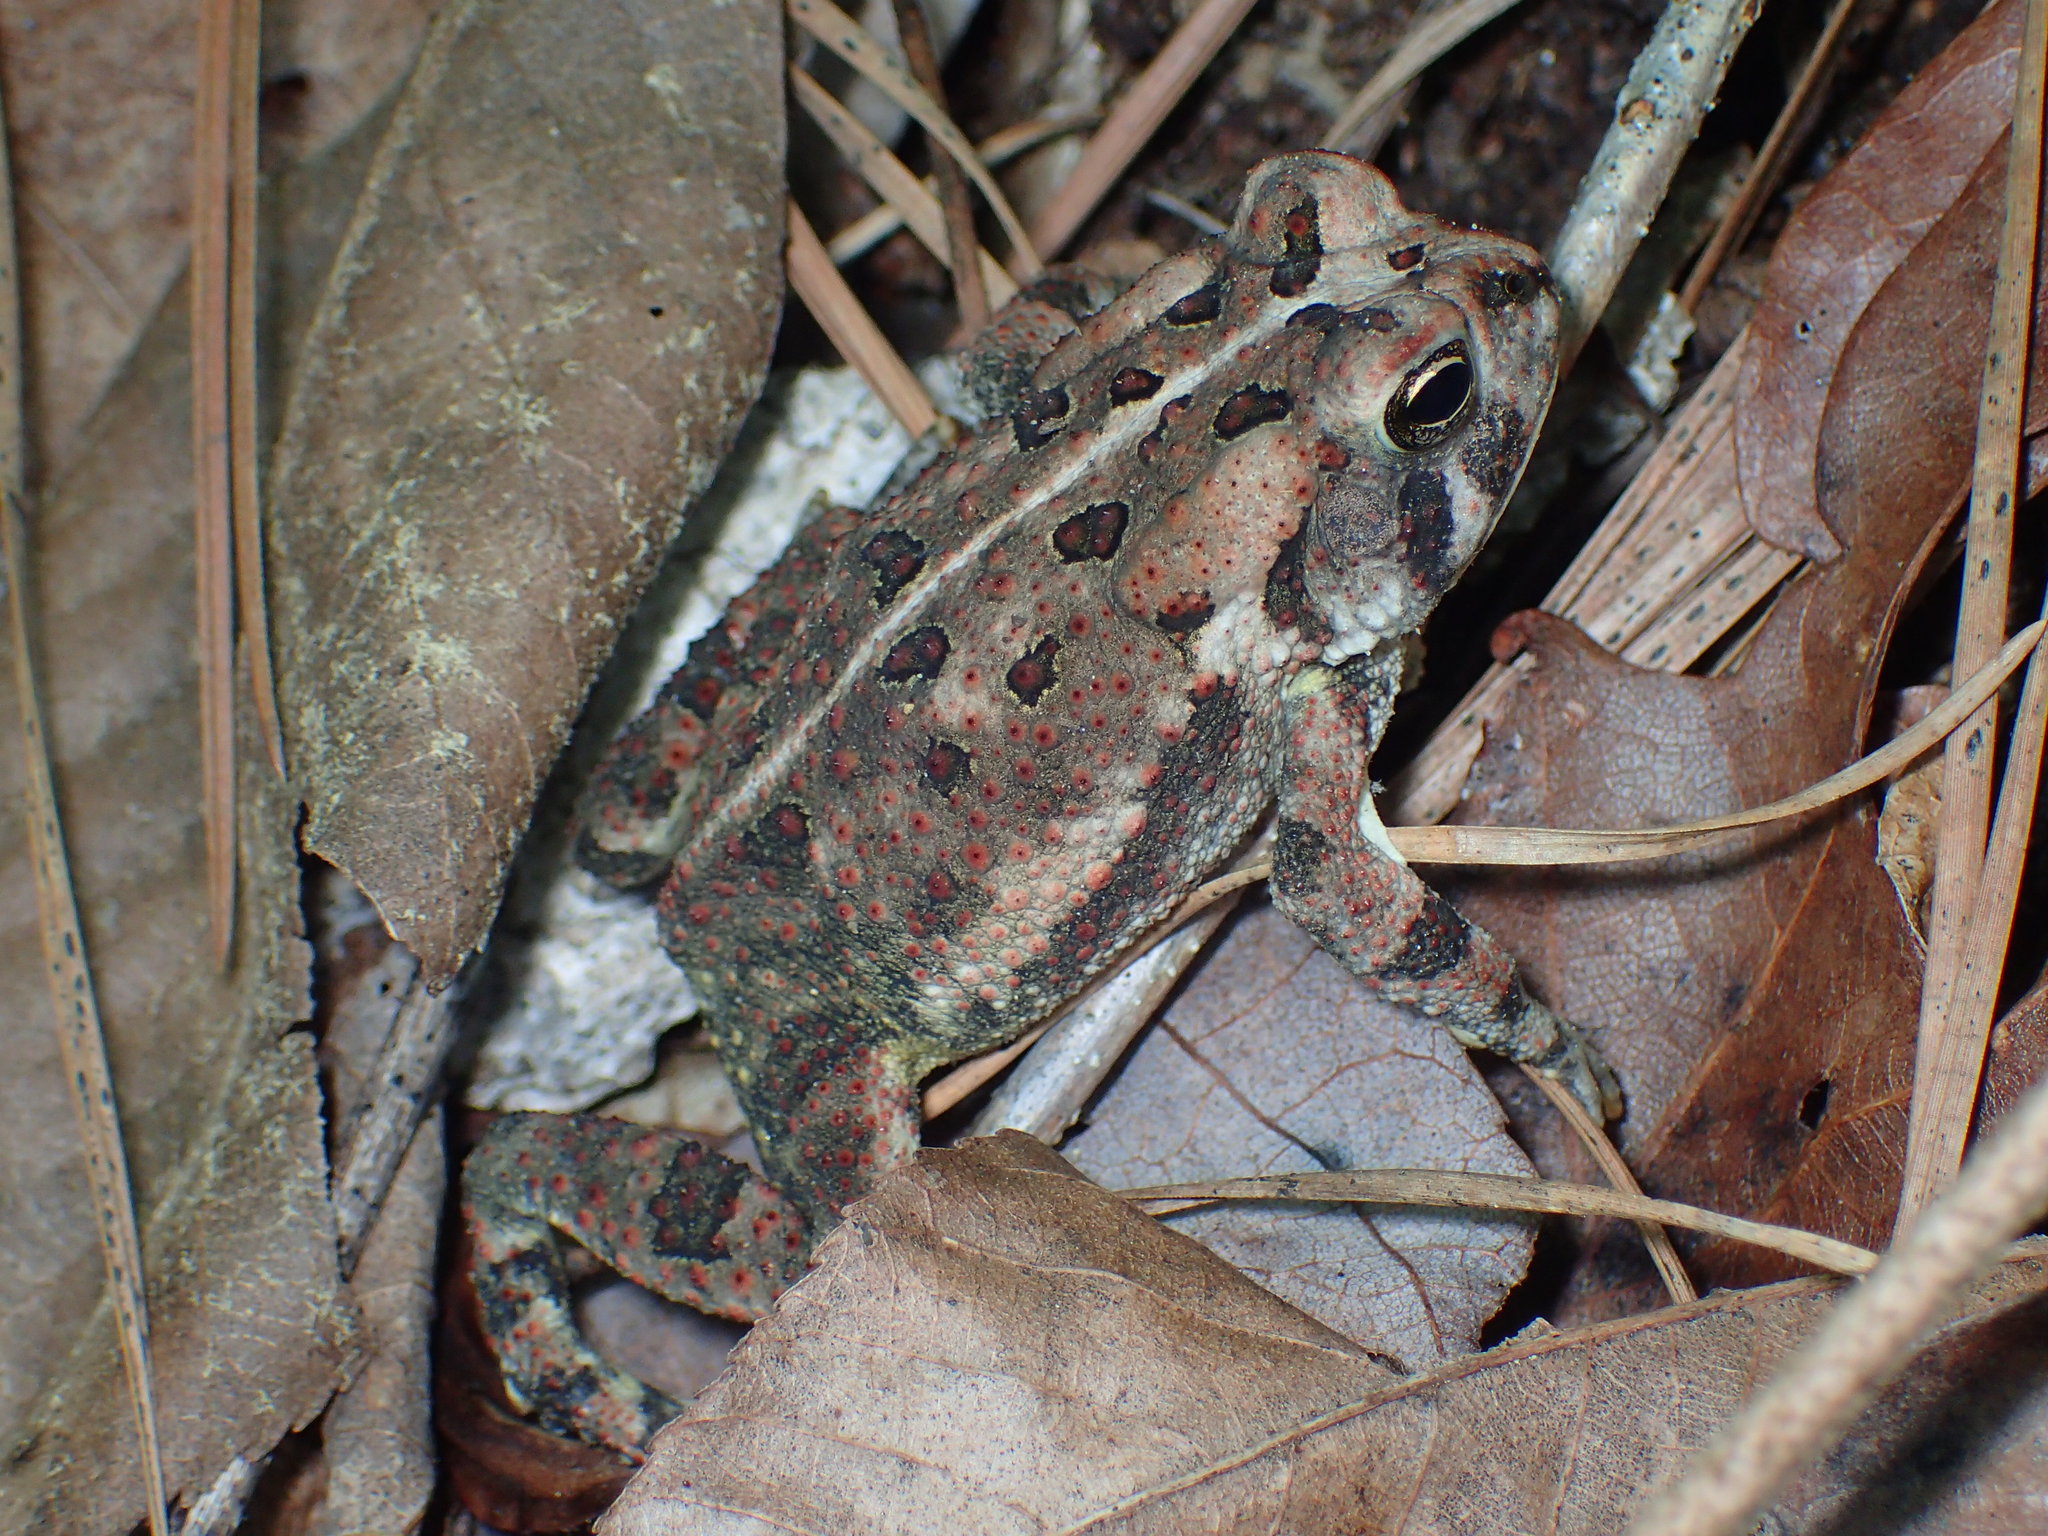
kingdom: Animalia
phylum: Chordata
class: Amphibia
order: Anura
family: Bufonidae
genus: Anaxyrus
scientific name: Anaxyrus fowleri
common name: Fowler's toad
